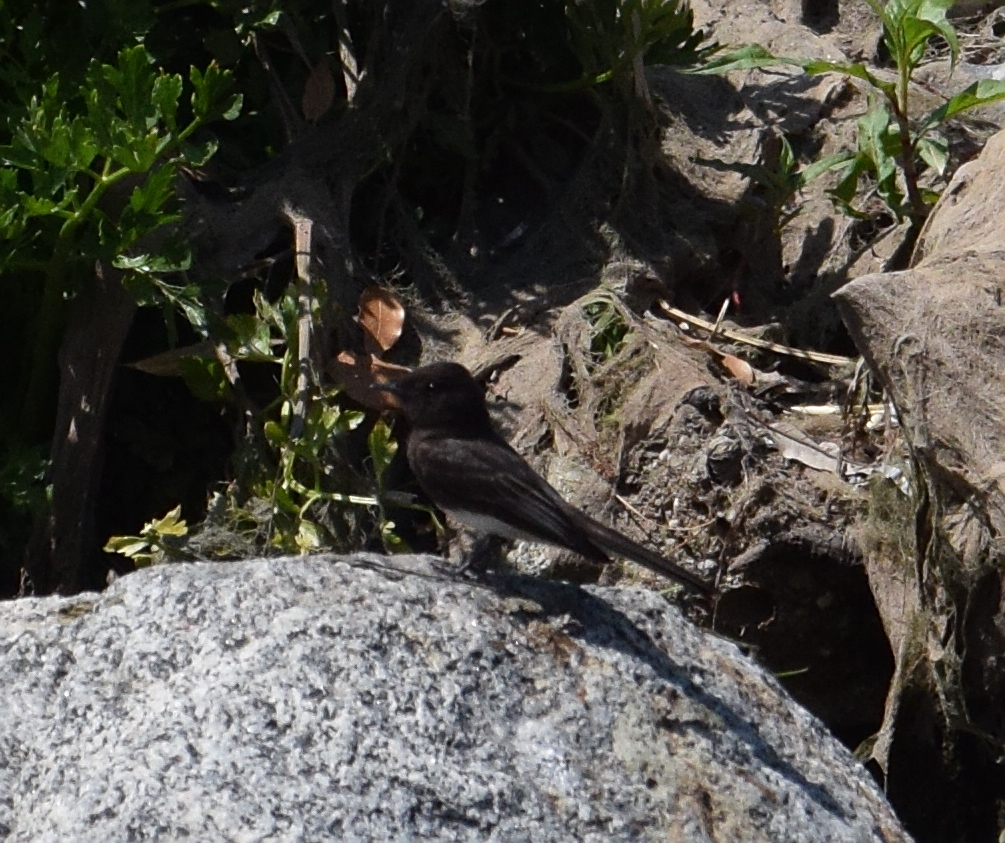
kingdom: Animalia
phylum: Chordata
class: Aves
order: Passeriformes
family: Tyrannidae
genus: Sayornis
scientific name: Sayornis nigricans
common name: Black phoebe
